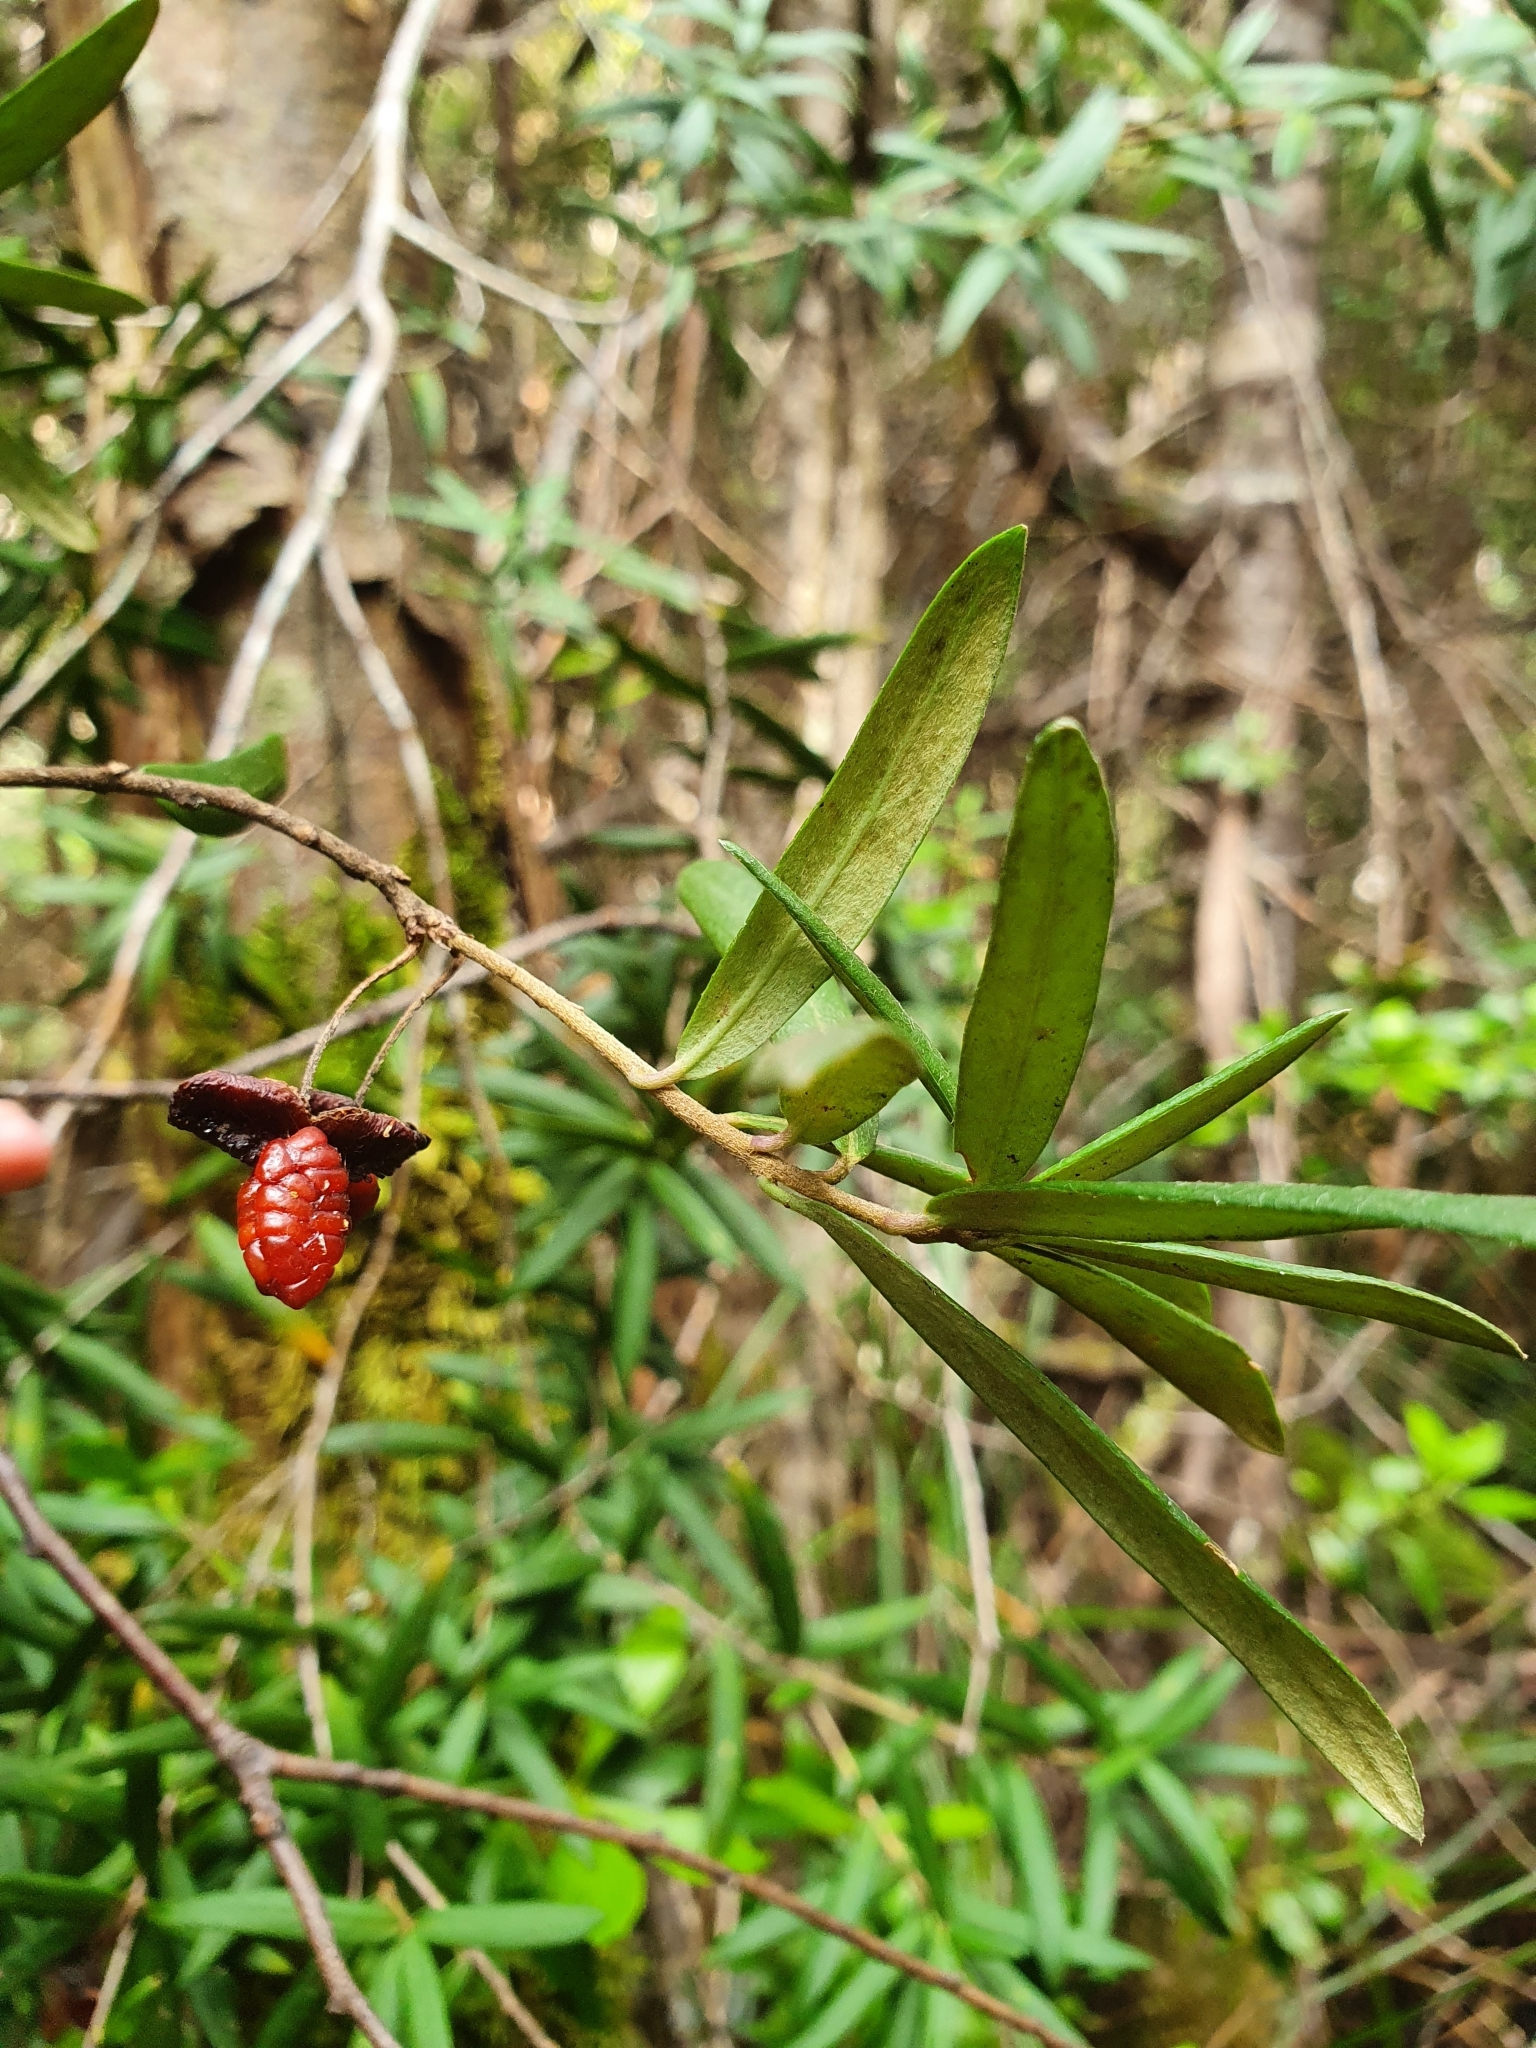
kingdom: Plantae
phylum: Tracheophyta
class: Magnoliopsida
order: Apiales
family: Pittosporaceae
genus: Pittosporum
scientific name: Pittosporum bicolor
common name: Tallowwood
